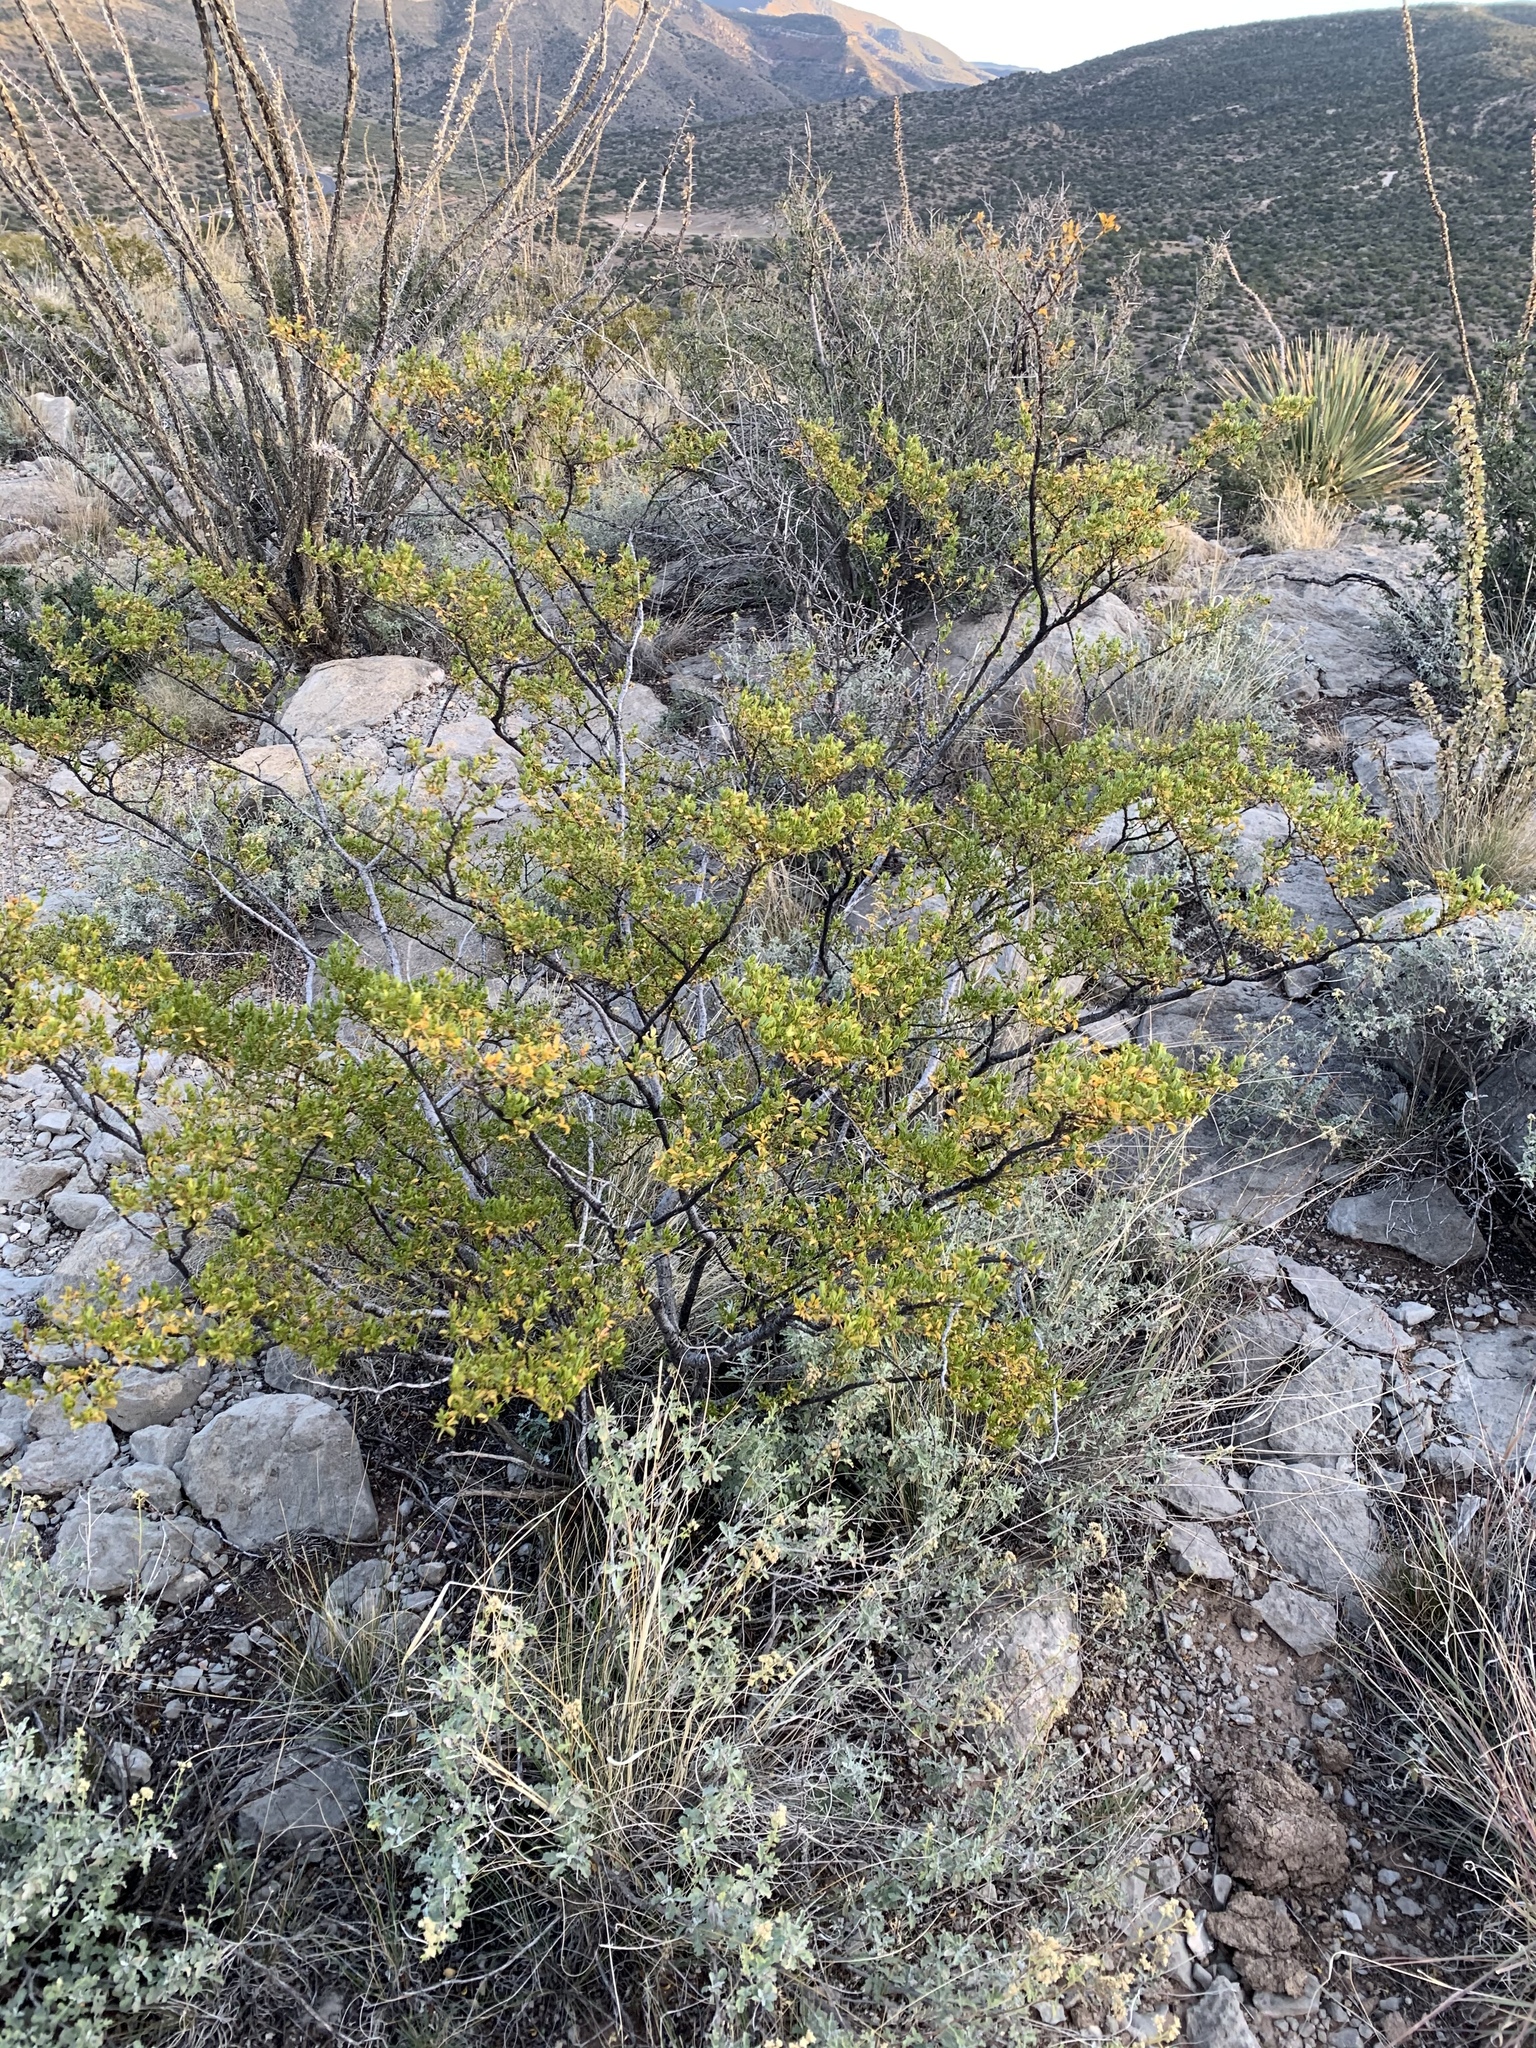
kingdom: Plantae
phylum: Tracheophyta
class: Magnoliopsida
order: Zygophyllales
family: Zygophyllaceae
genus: Larrea
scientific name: Larrea tridentata
